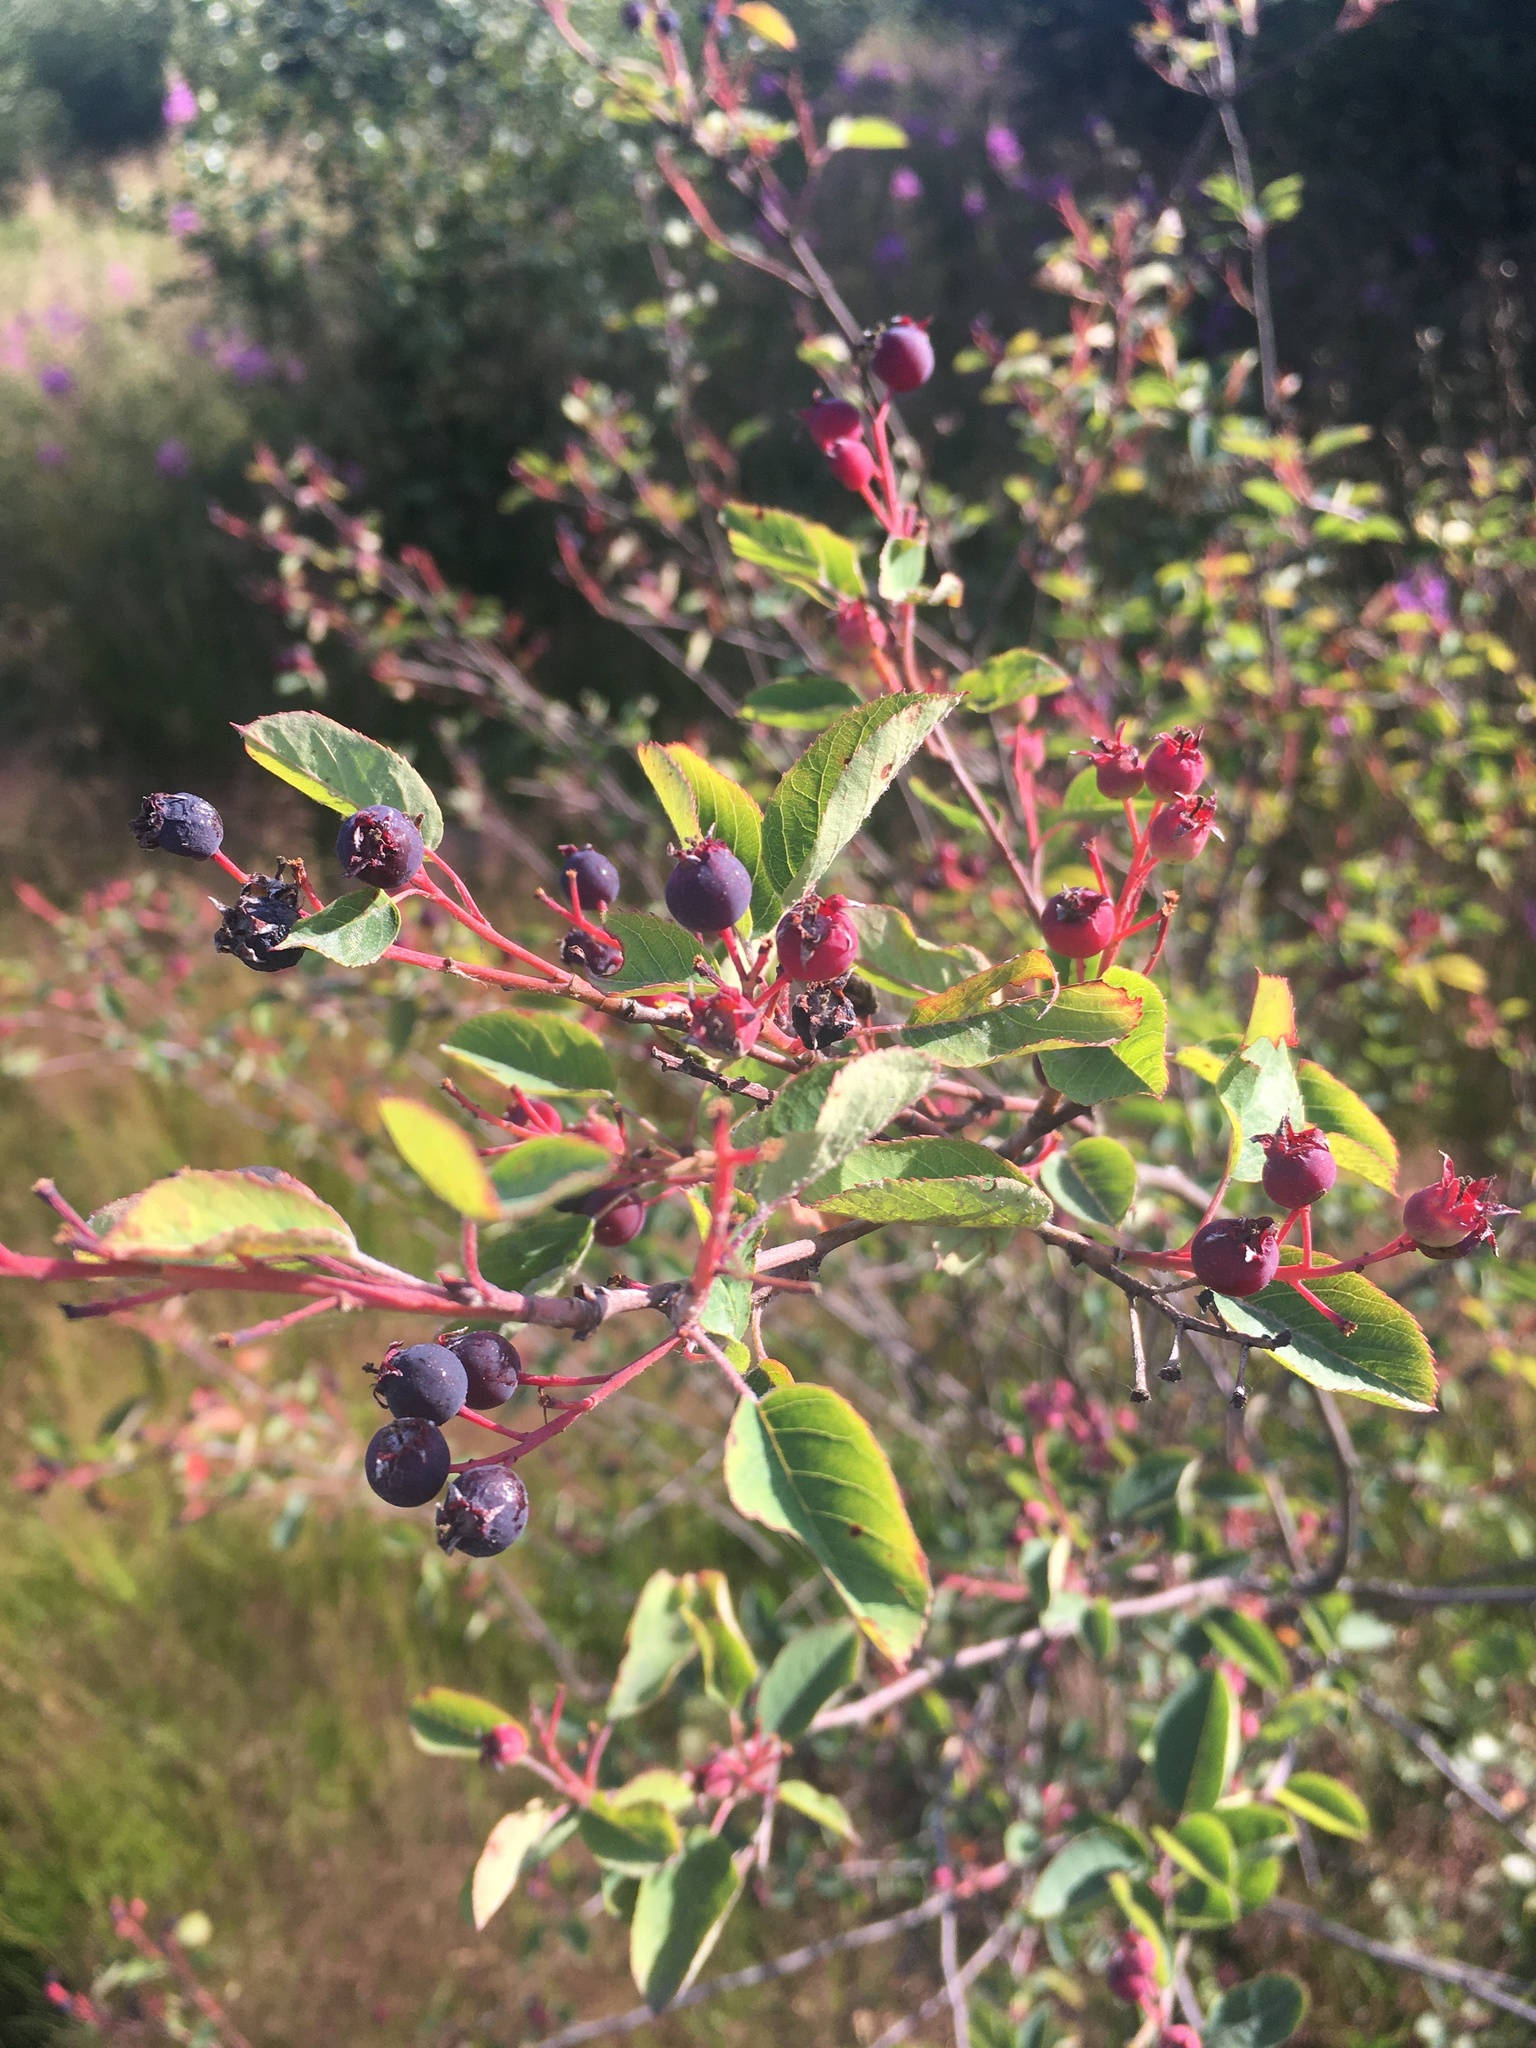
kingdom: Plantae
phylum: Tracheophyta
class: Magnoliopsida
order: Rosales
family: Rosaceae
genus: Amelanchier
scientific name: Amelanchier
